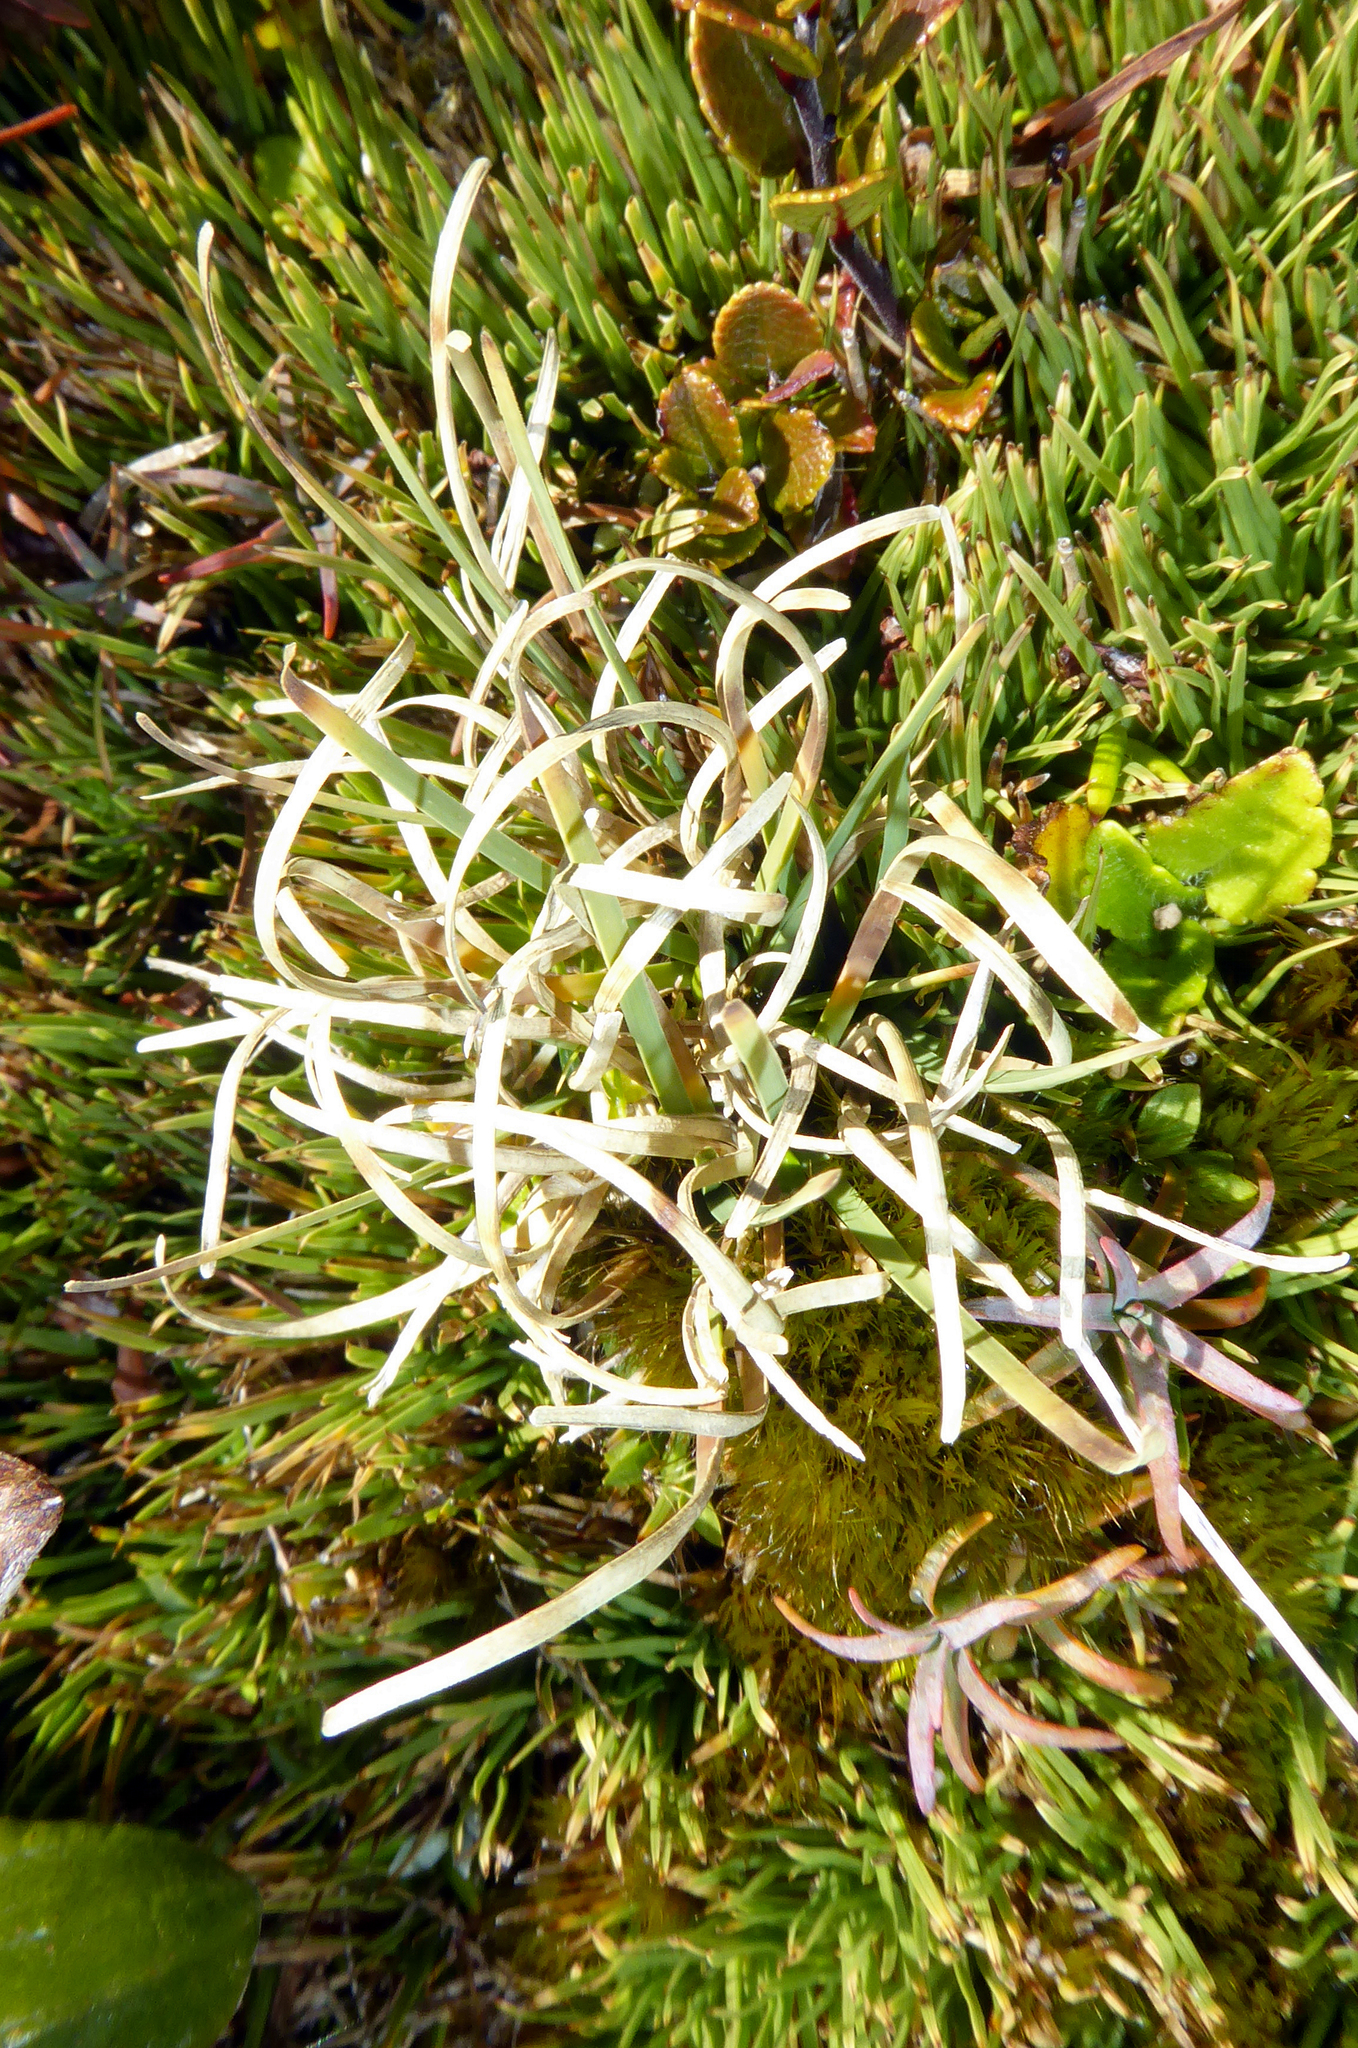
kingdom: Plantae
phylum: Tracheophyta
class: Liliopsida
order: Poales
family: Cyperaceae
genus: Carpha
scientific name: Carpha alpina
